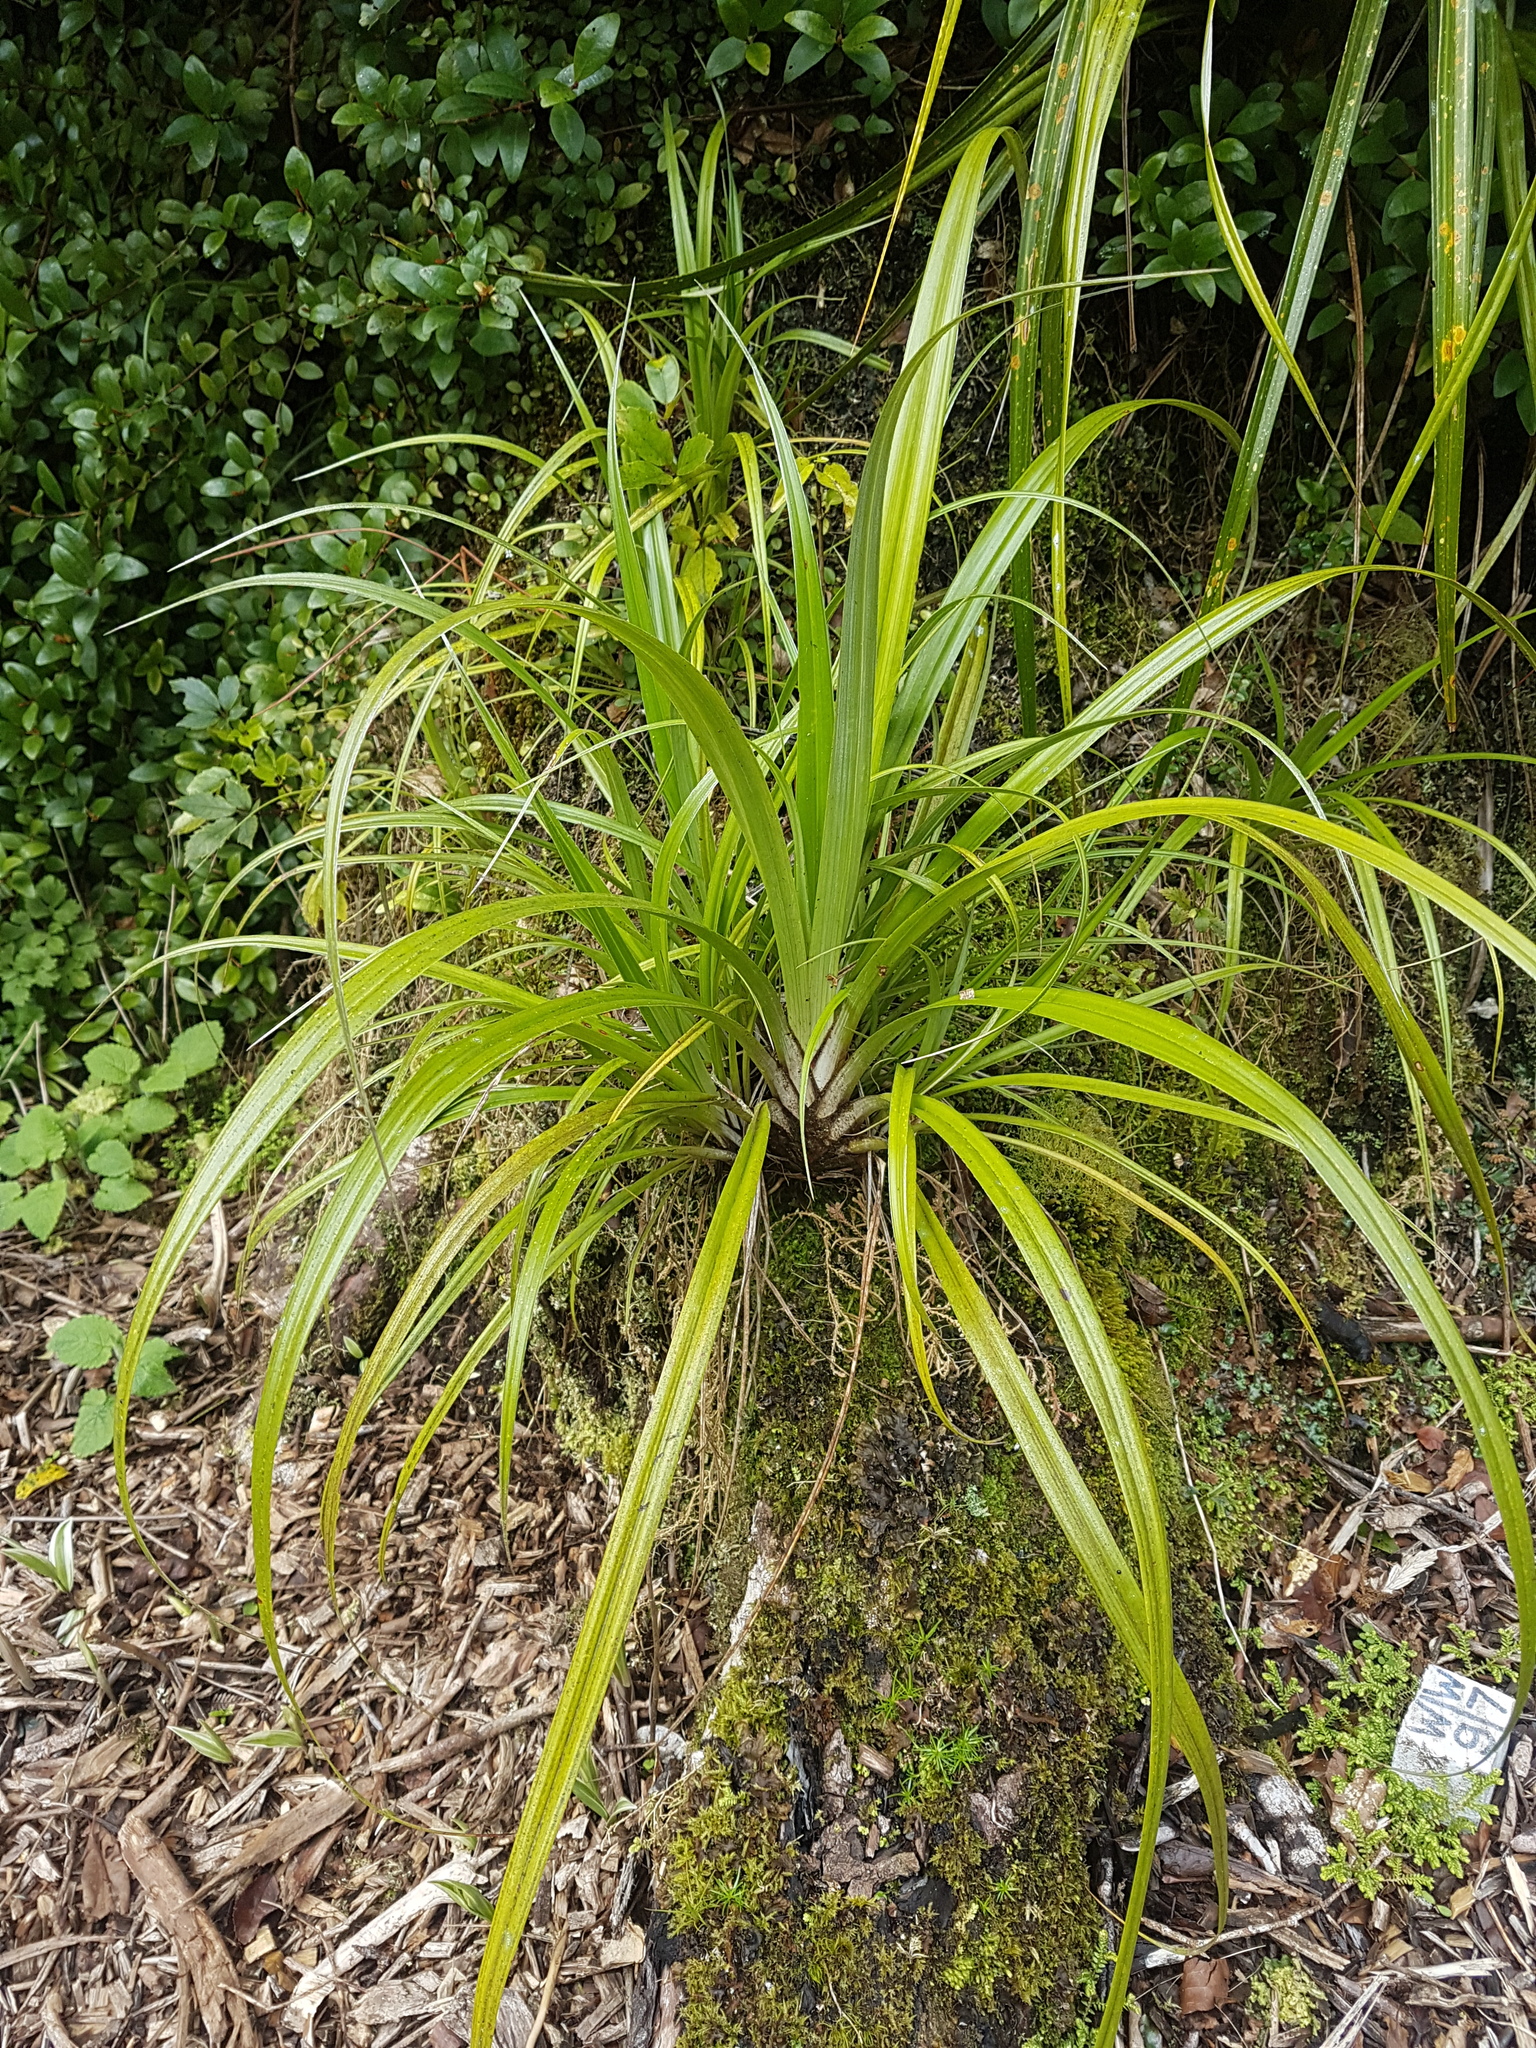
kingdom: Plantae
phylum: Tracheophyta
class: Liliopsida
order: Asparagales
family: Asteliaceae
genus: Astelia
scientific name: Astelia solandri
